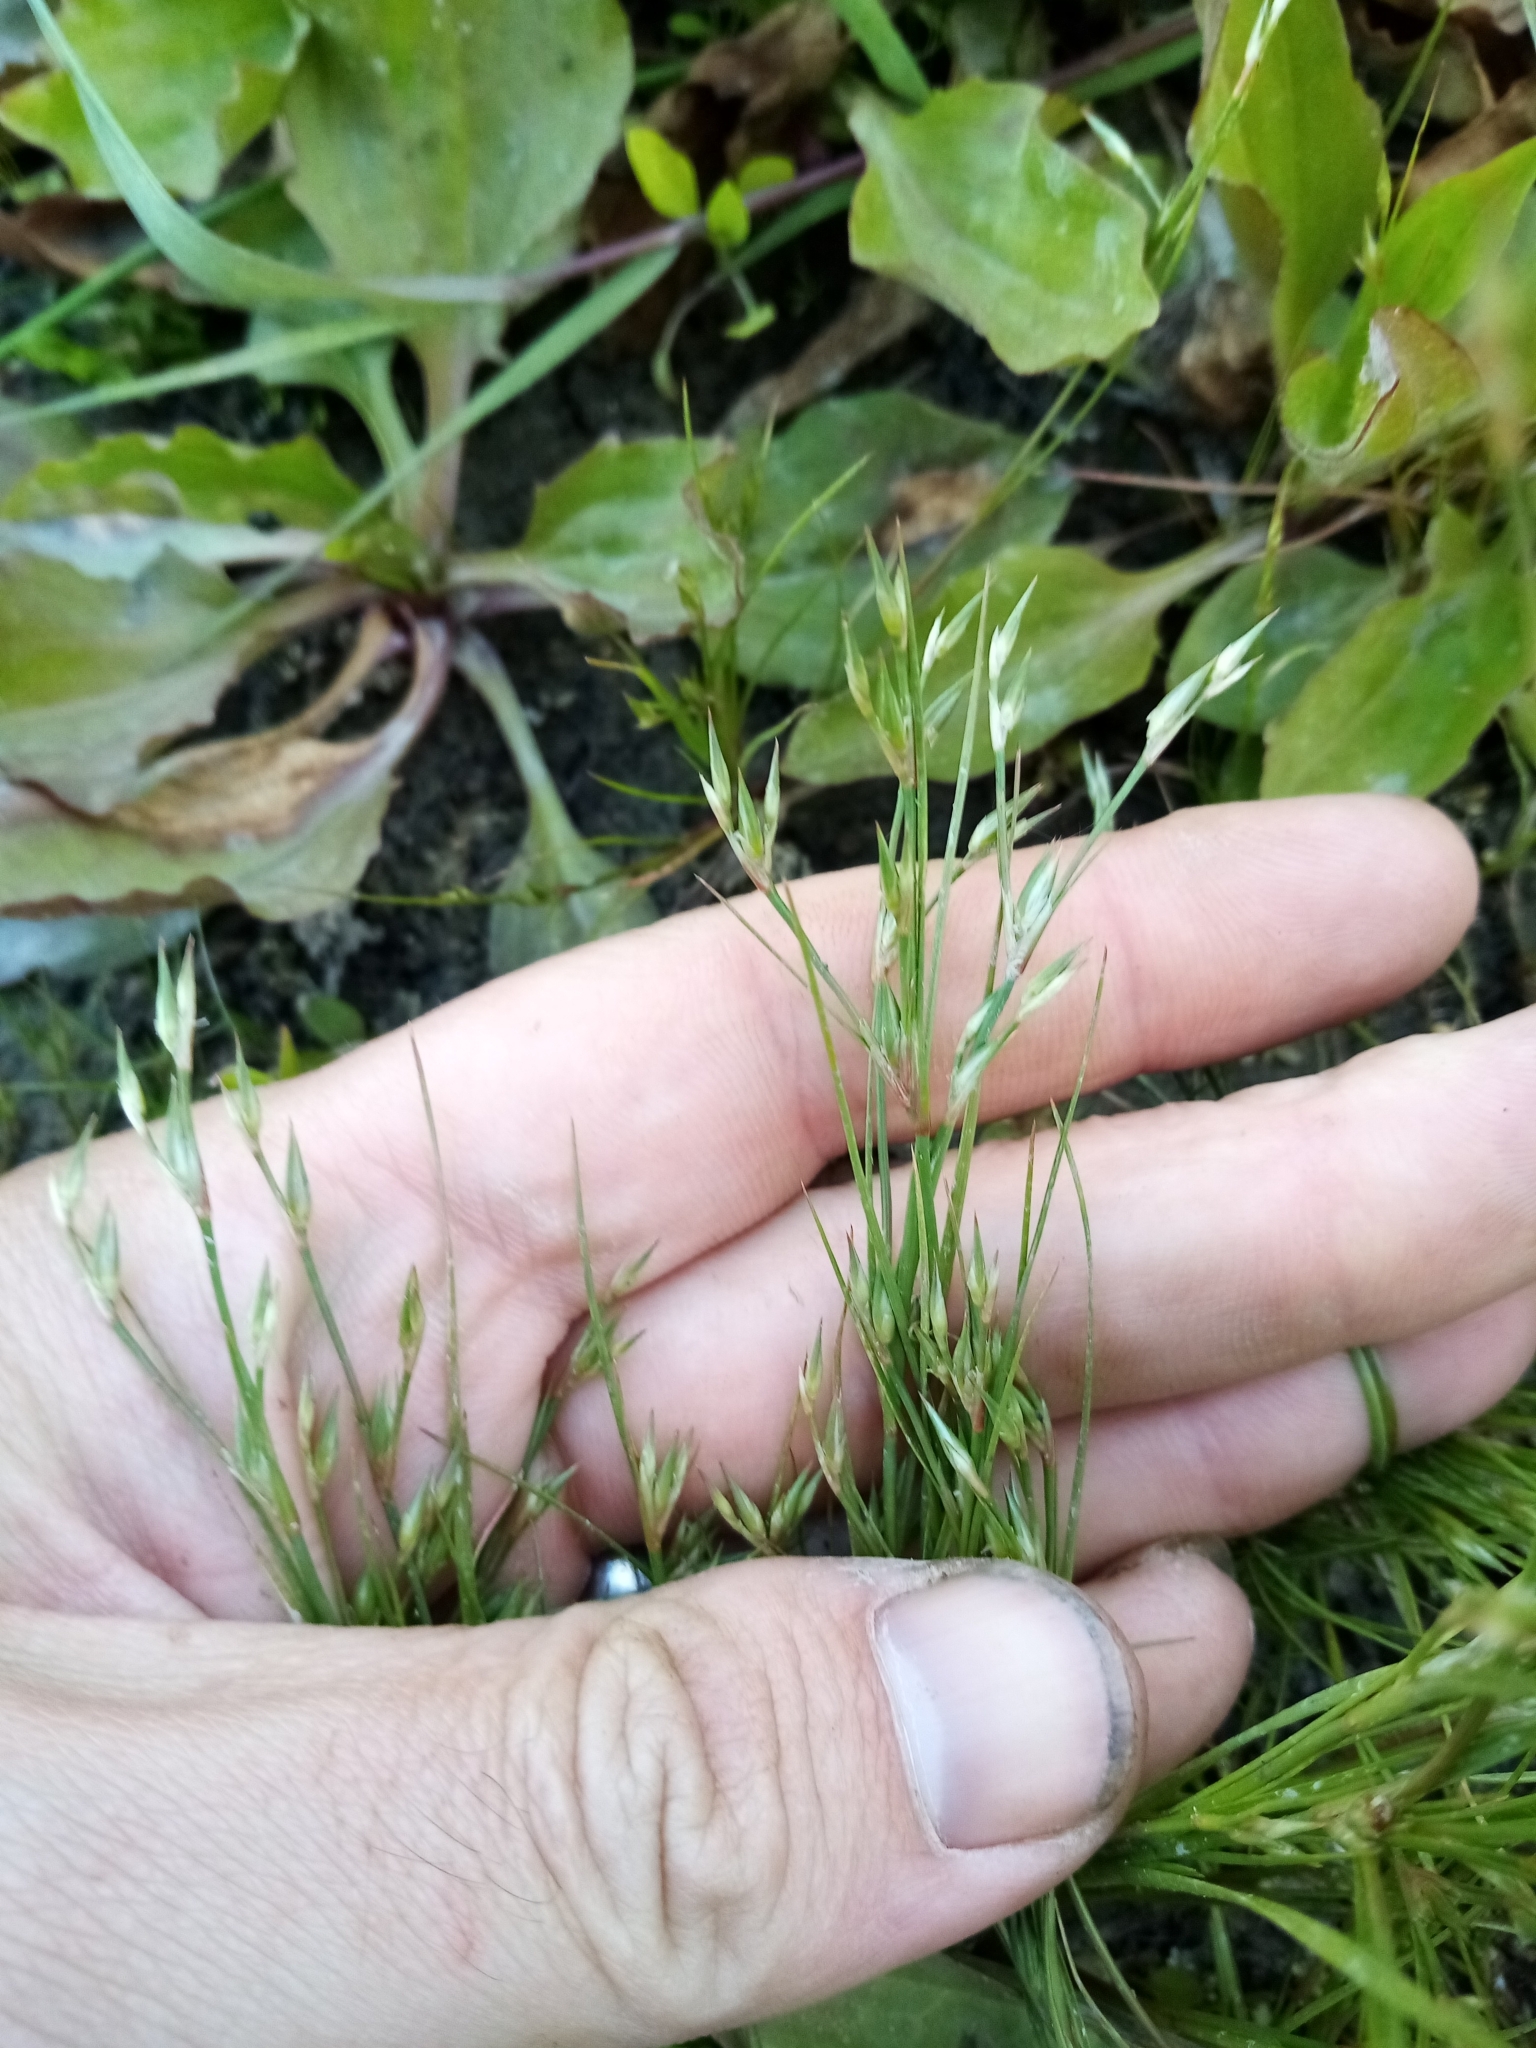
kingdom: Plantae
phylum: Tracheophyta
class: Liliopsida
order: Poales
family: Juncaceae
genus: Juncus
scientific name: Juncus bufonius
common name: Toad rush
